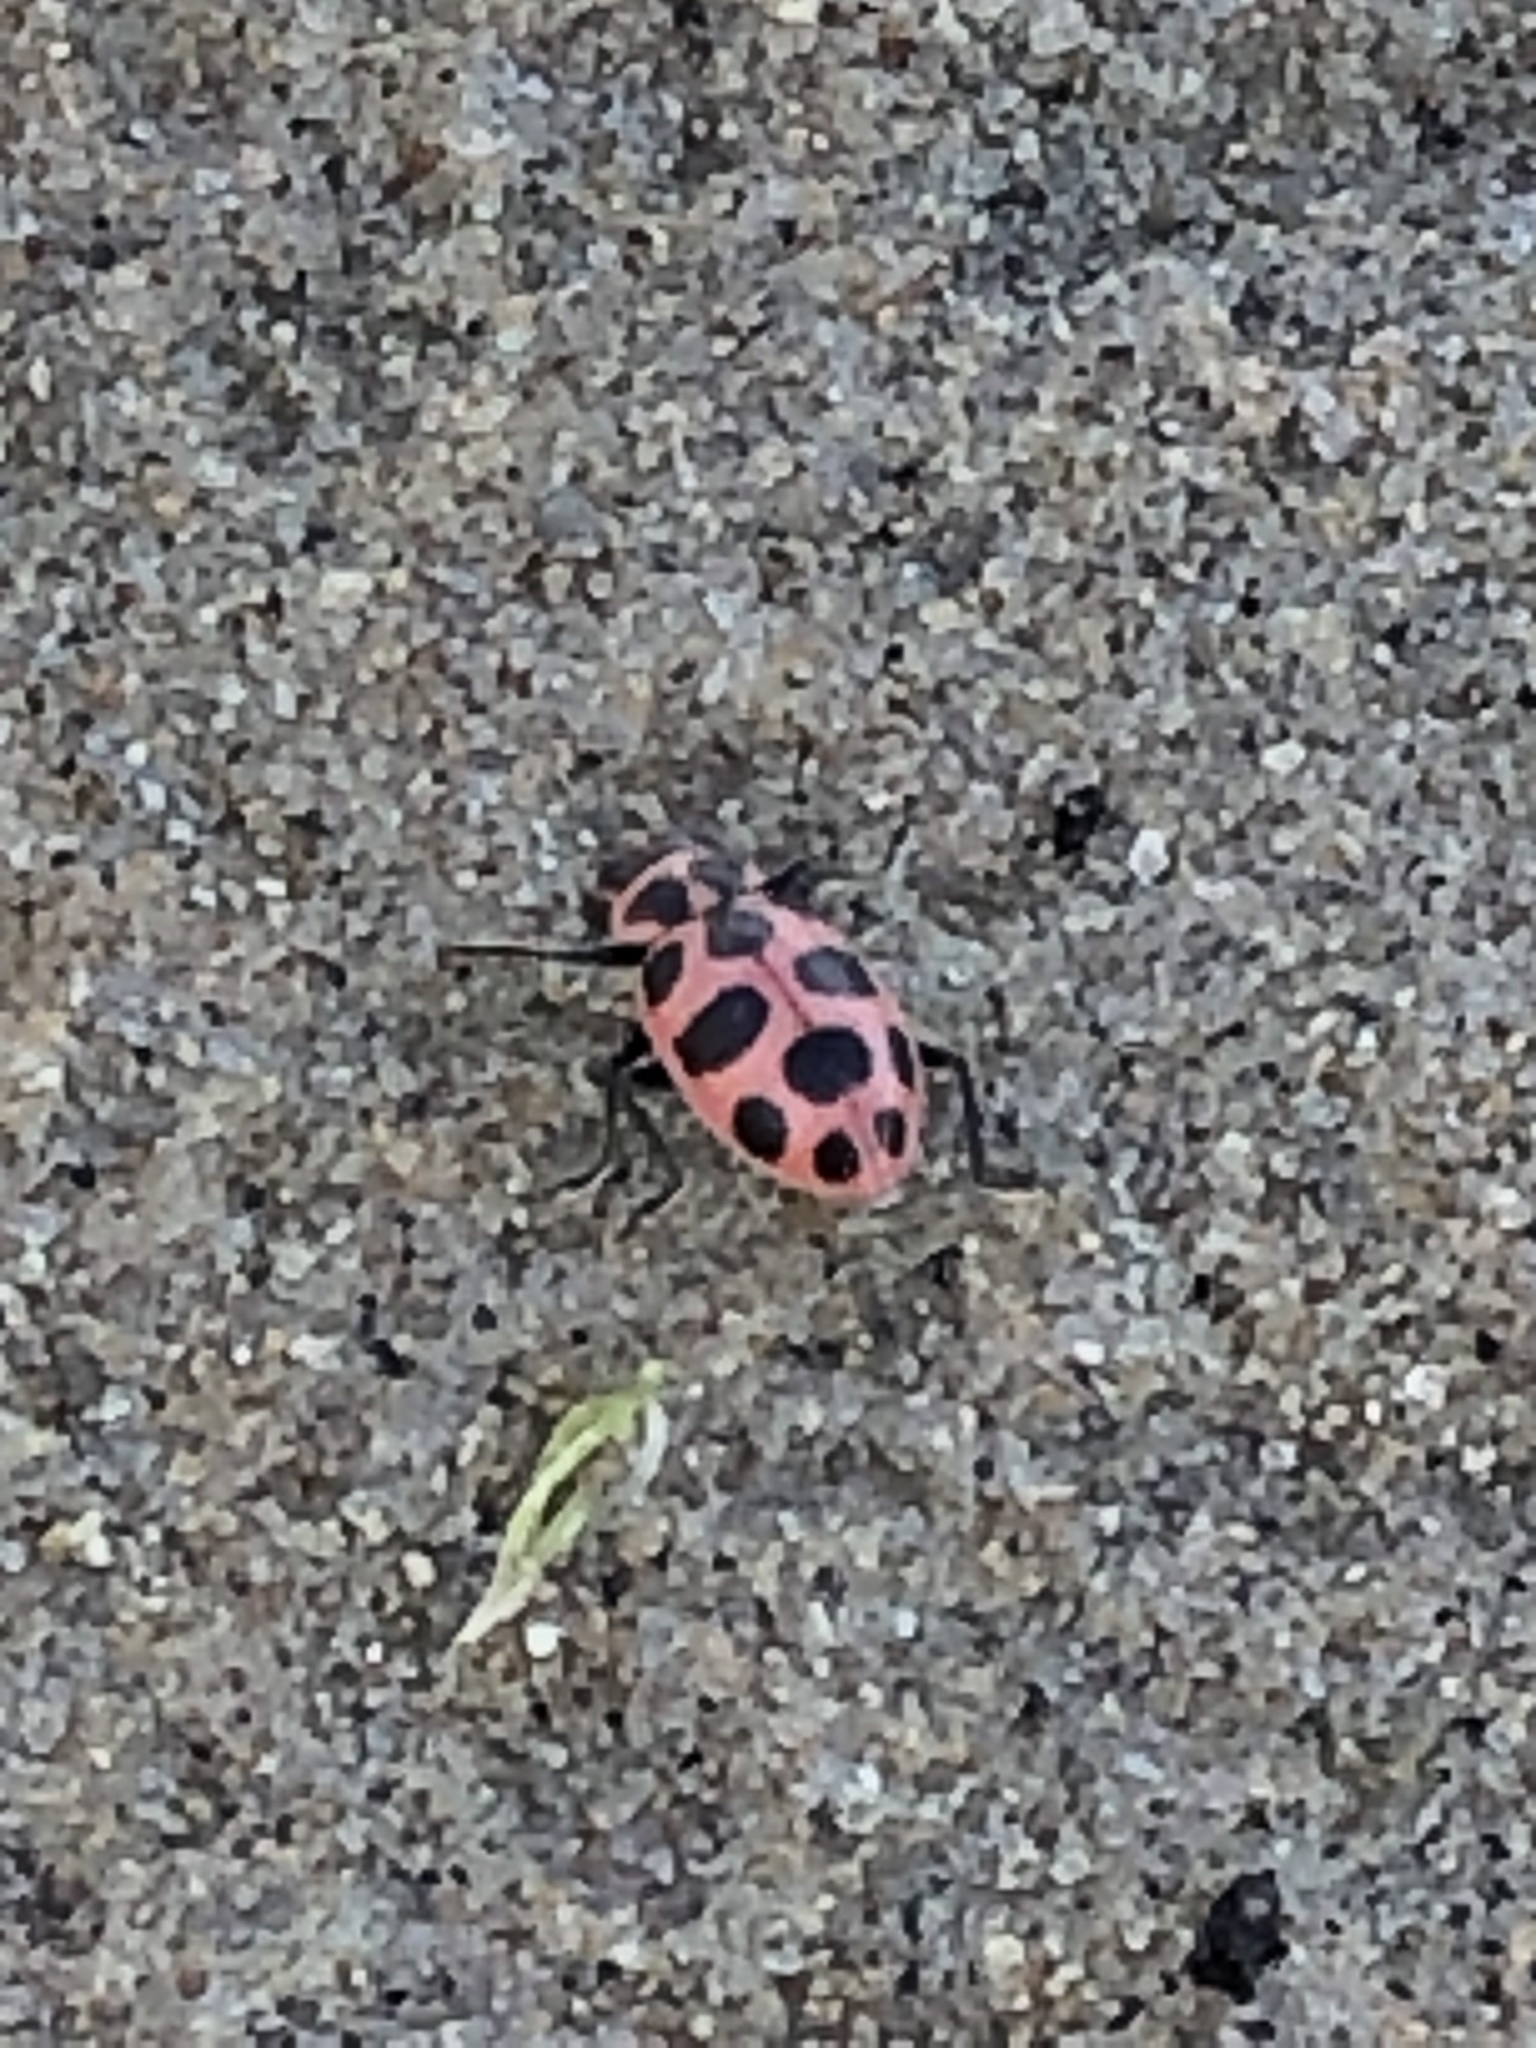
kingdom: Animalia
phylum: Arthropoda
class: Insecta
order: Coleoptera
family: Coccinellidae
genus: Coleomegilla
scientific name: Coleomegilla maculata
